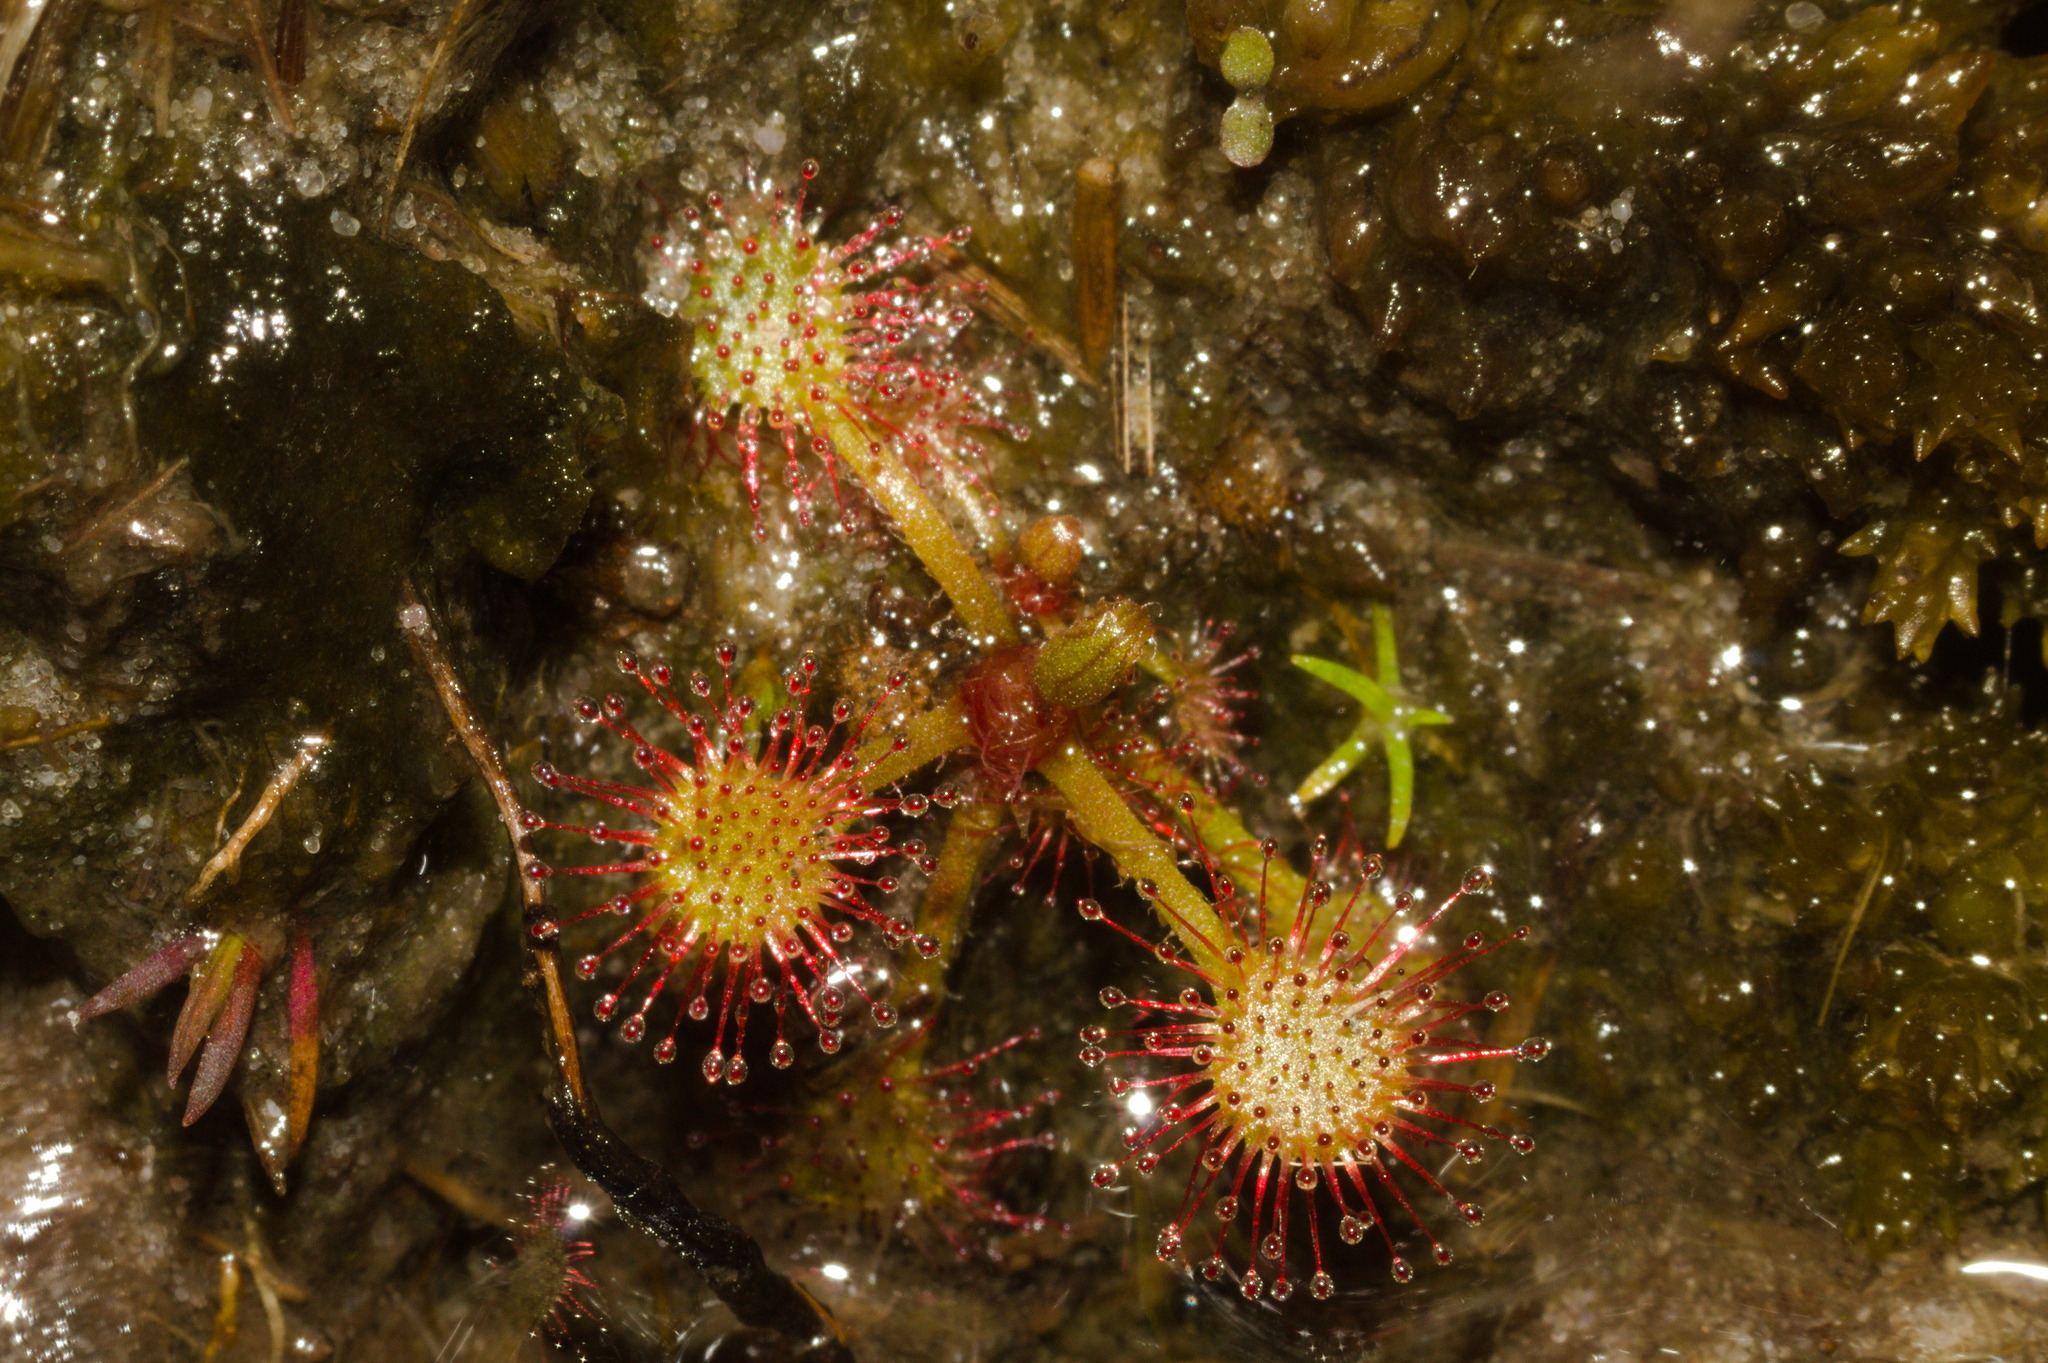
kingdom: Plantae
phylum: Tracheophyta
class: Magnoliopsida
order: Caryophyllales
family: Droseraceae
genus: Drosera
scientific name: Drosera brevifolia
